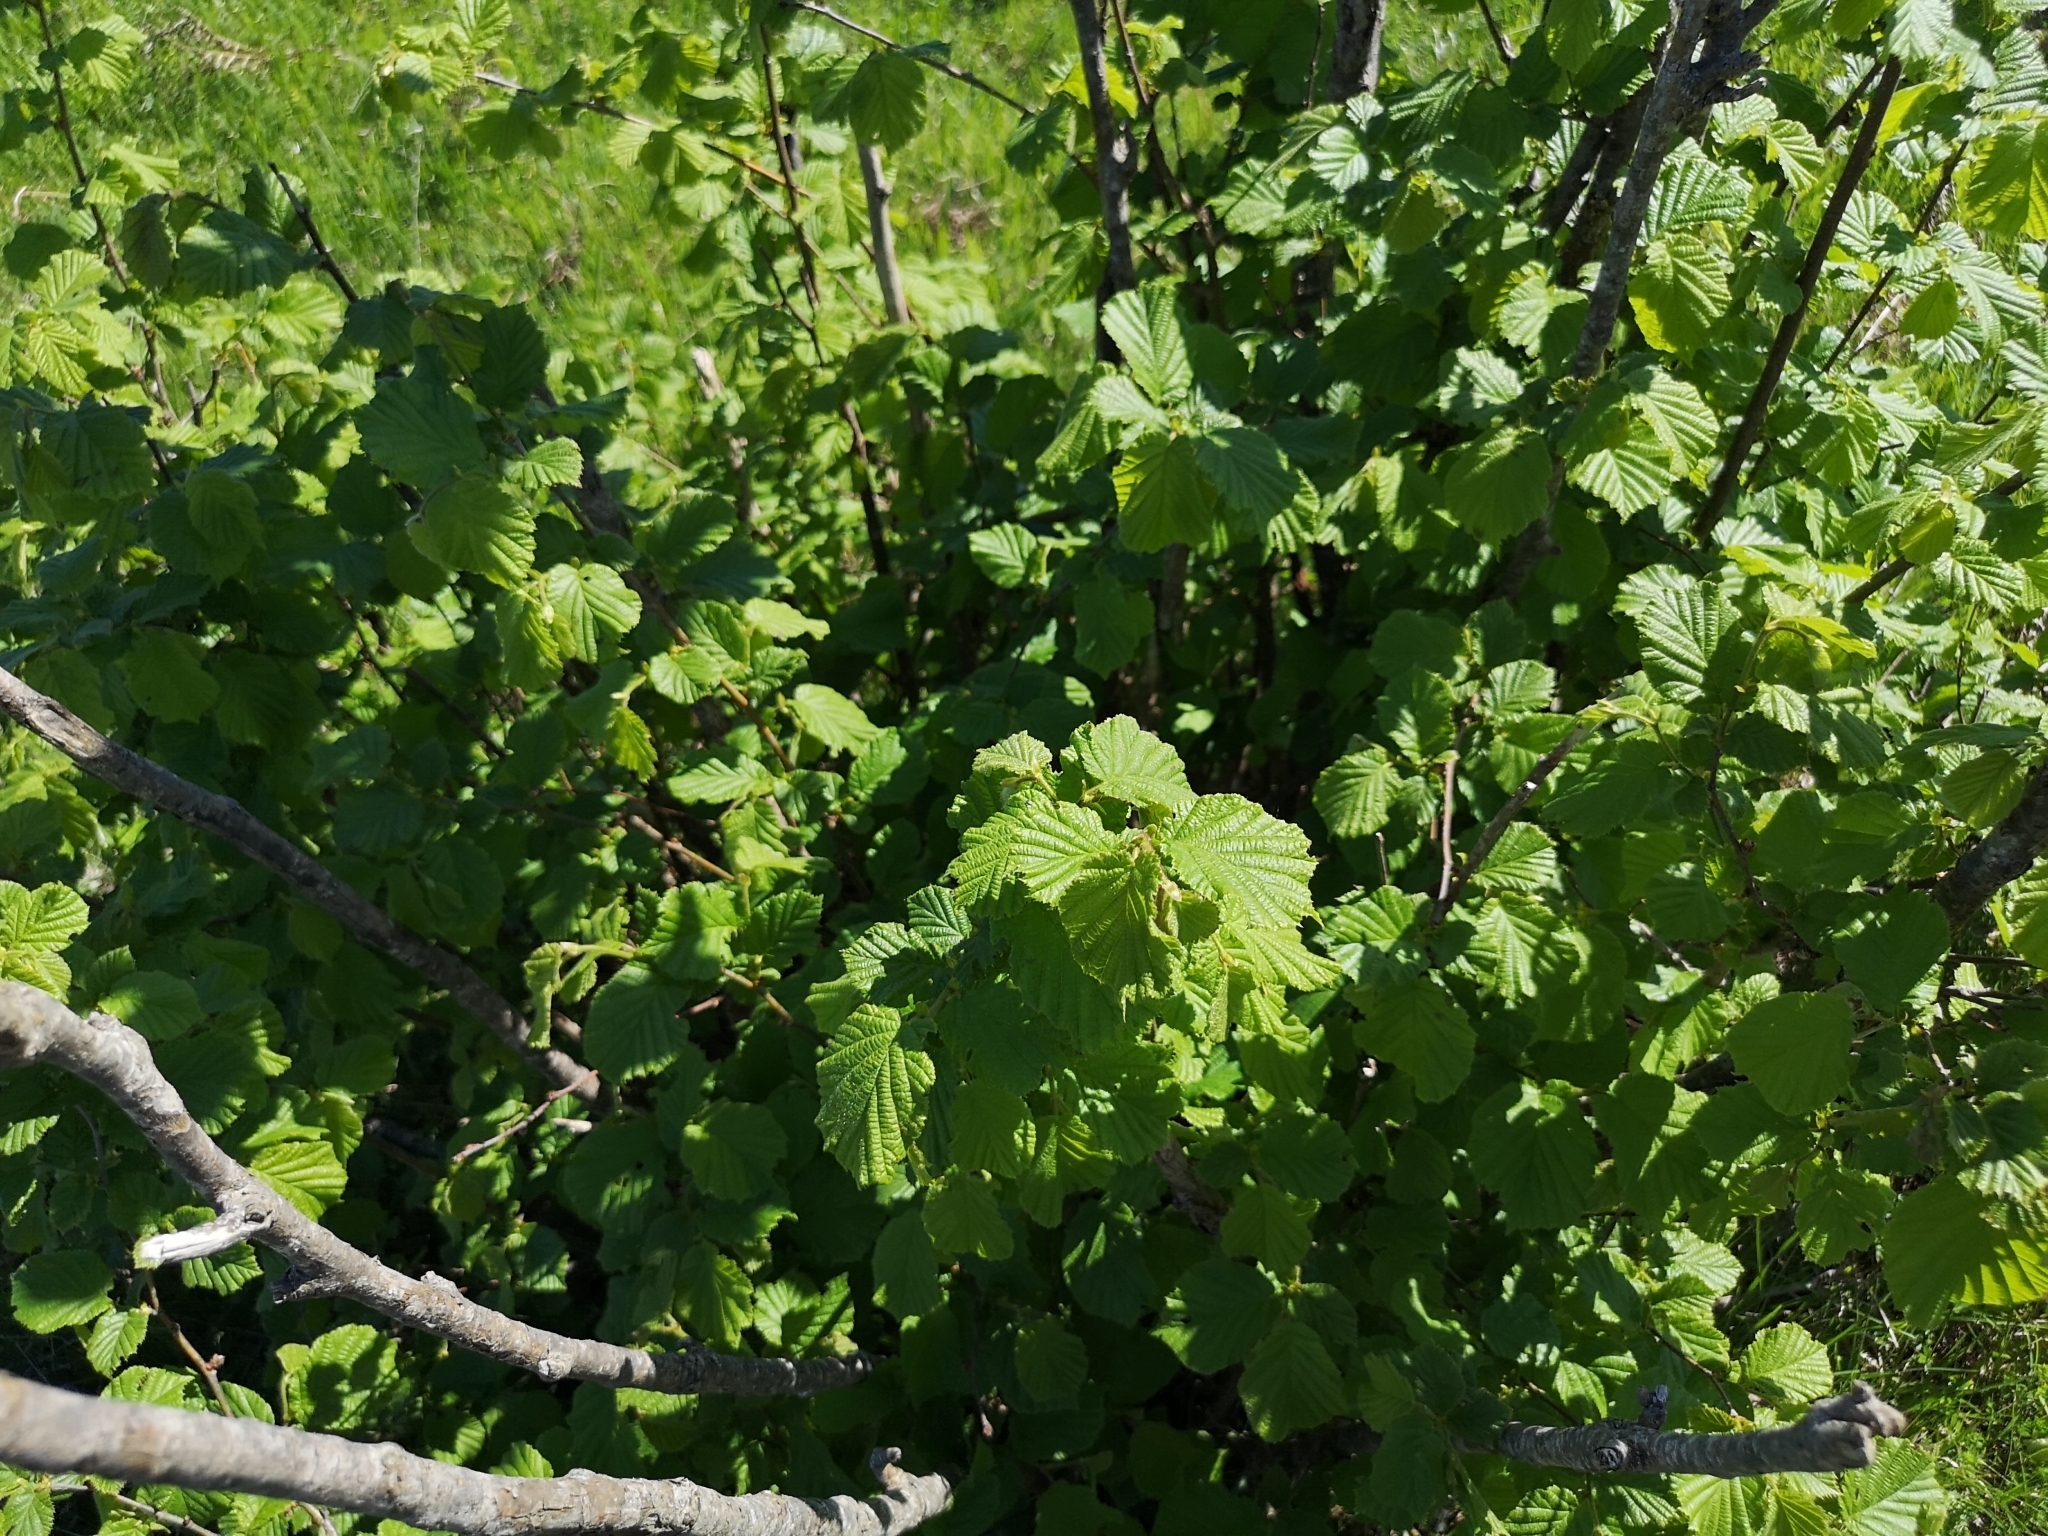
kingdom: Plantae
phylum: Tracheophyta
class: Magnoliopsida
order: Fagales
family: Betulaceae
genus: Corylus
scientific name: Corylus avellana
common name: European hazel
